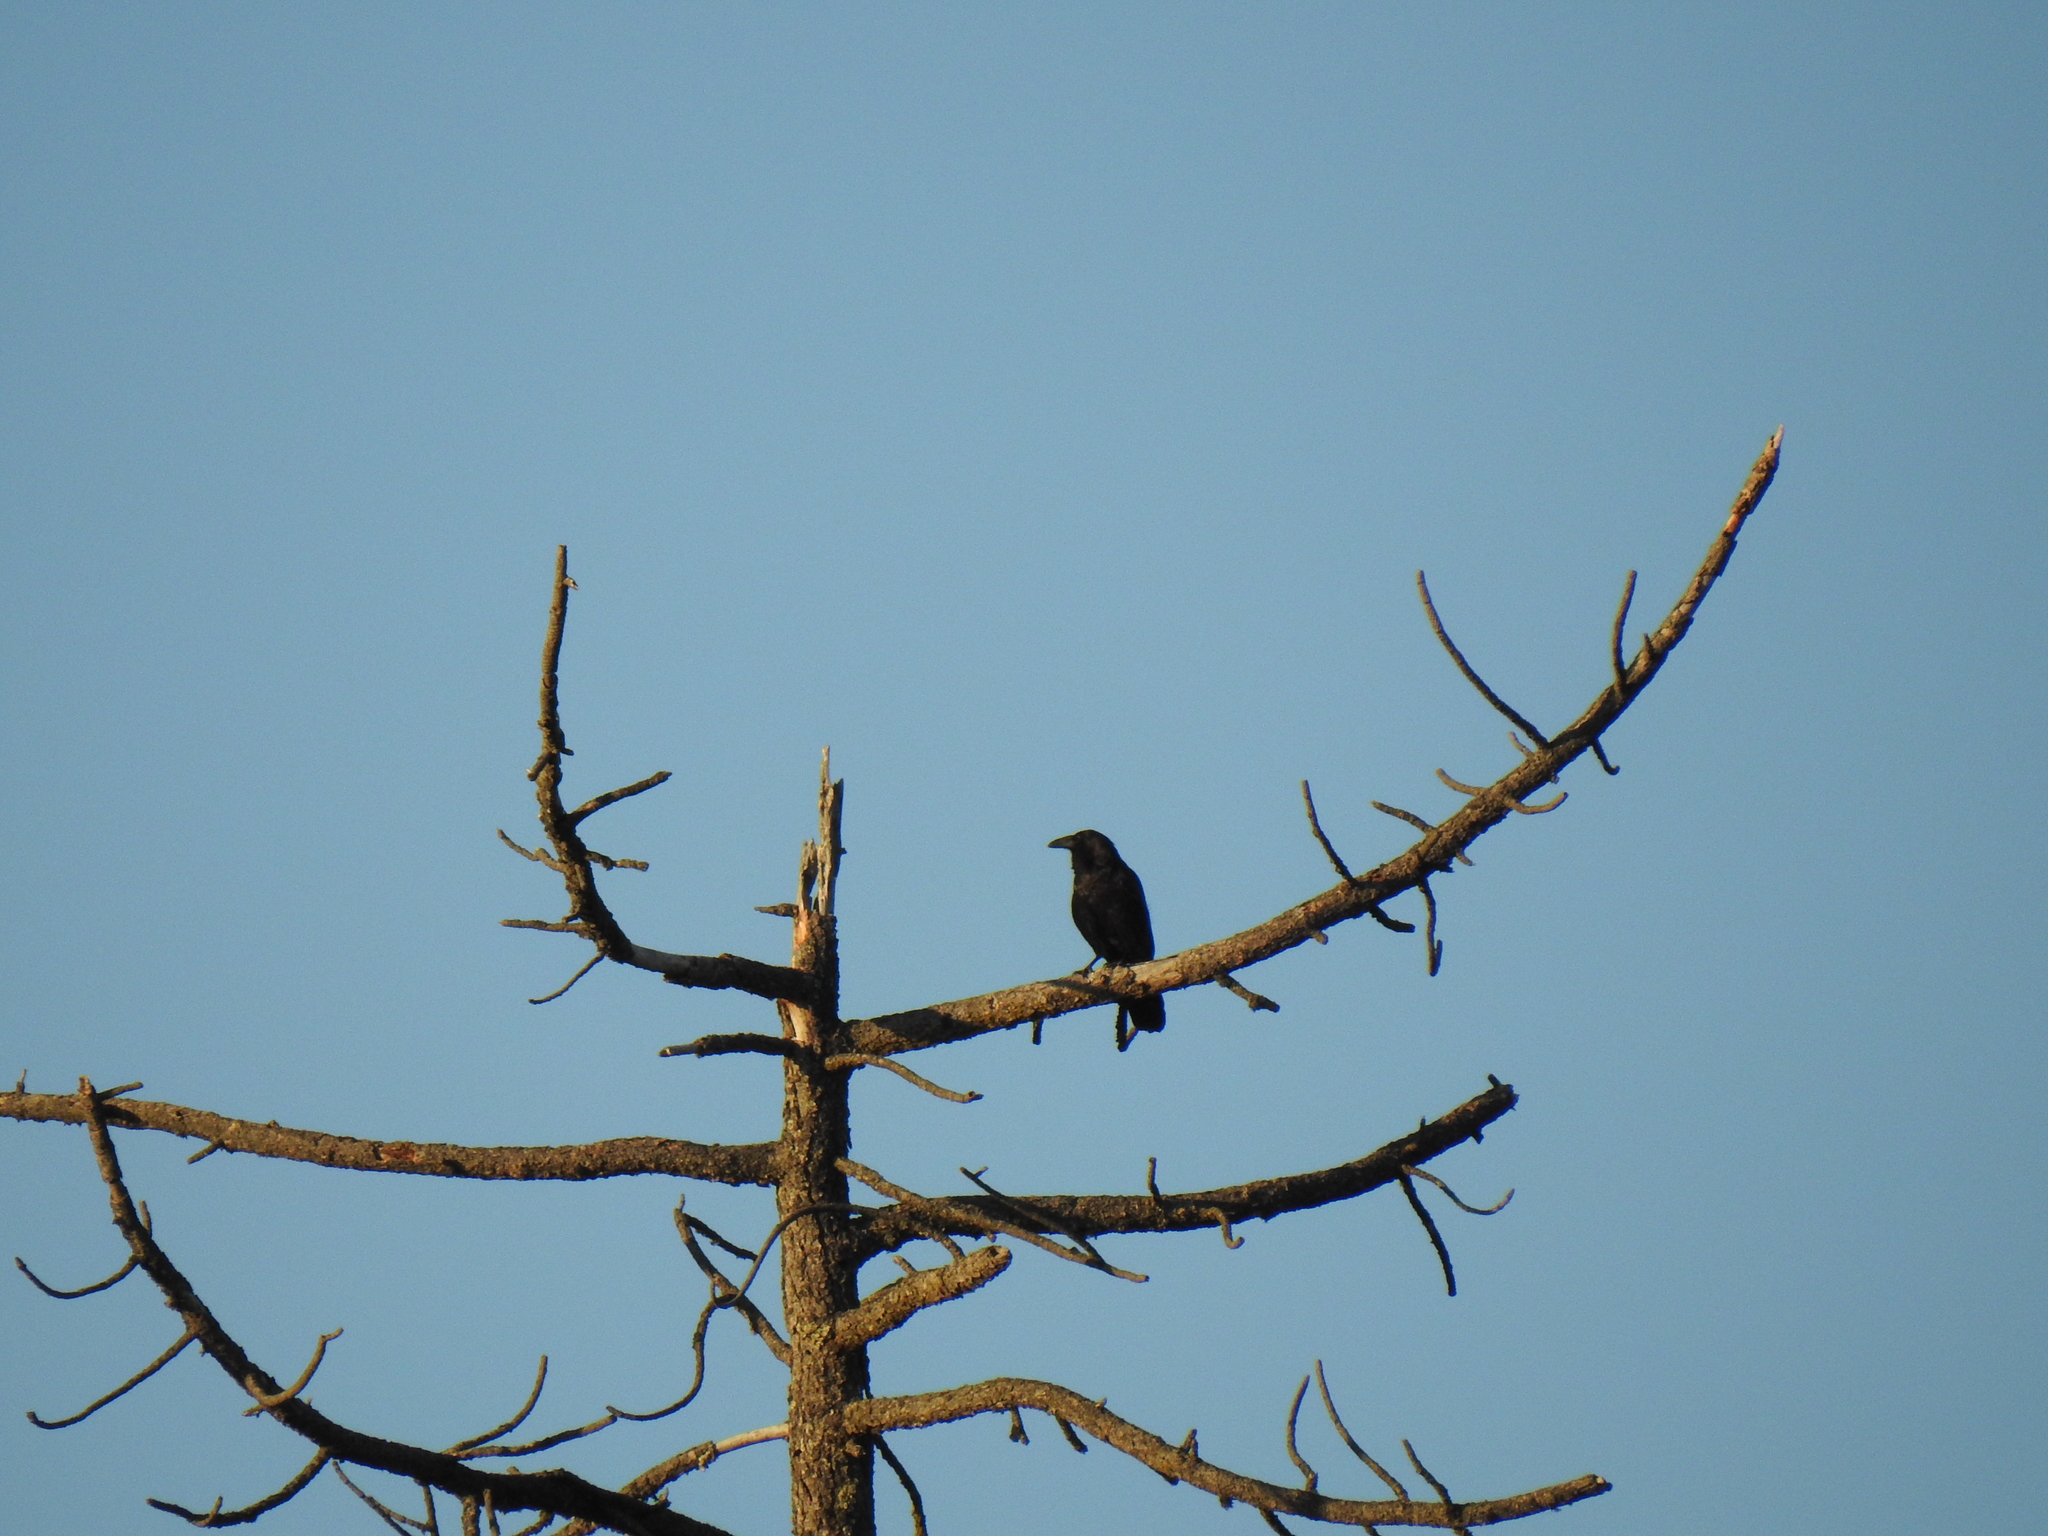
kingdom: Animalia
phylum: Chordata
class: Aves
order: Passeriformes
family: Corvidae
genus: Corvus
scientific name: Corvus corax
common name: Common raven
